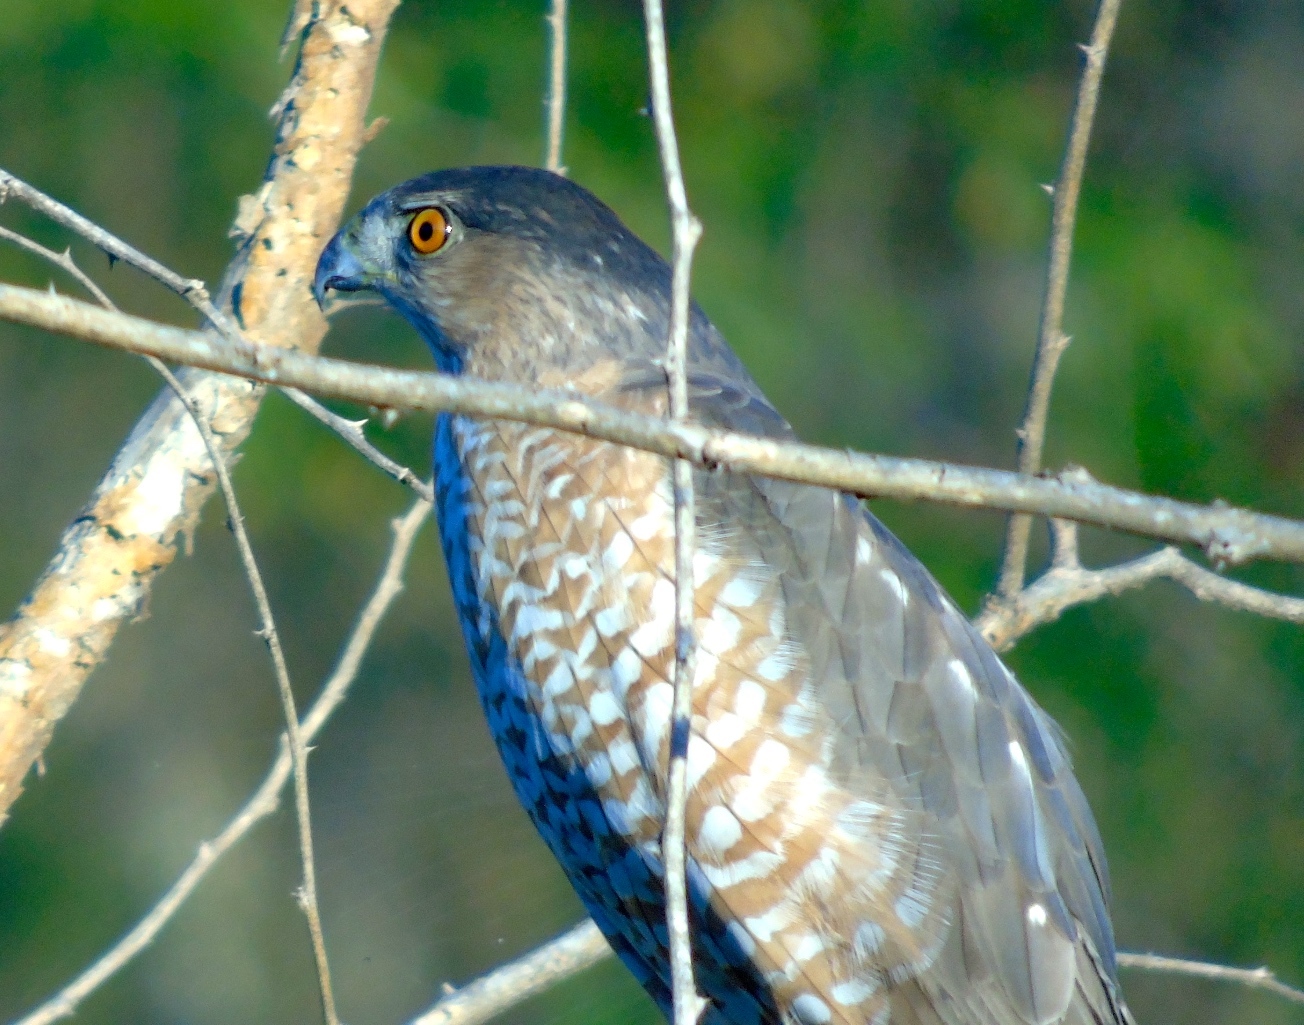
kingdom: Animalia
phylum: Chordata
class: Aves
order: Accipitriformes
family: Accipitridae
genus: Accipiter
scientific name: Accipiter cooperii
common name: Cooper's hawk
